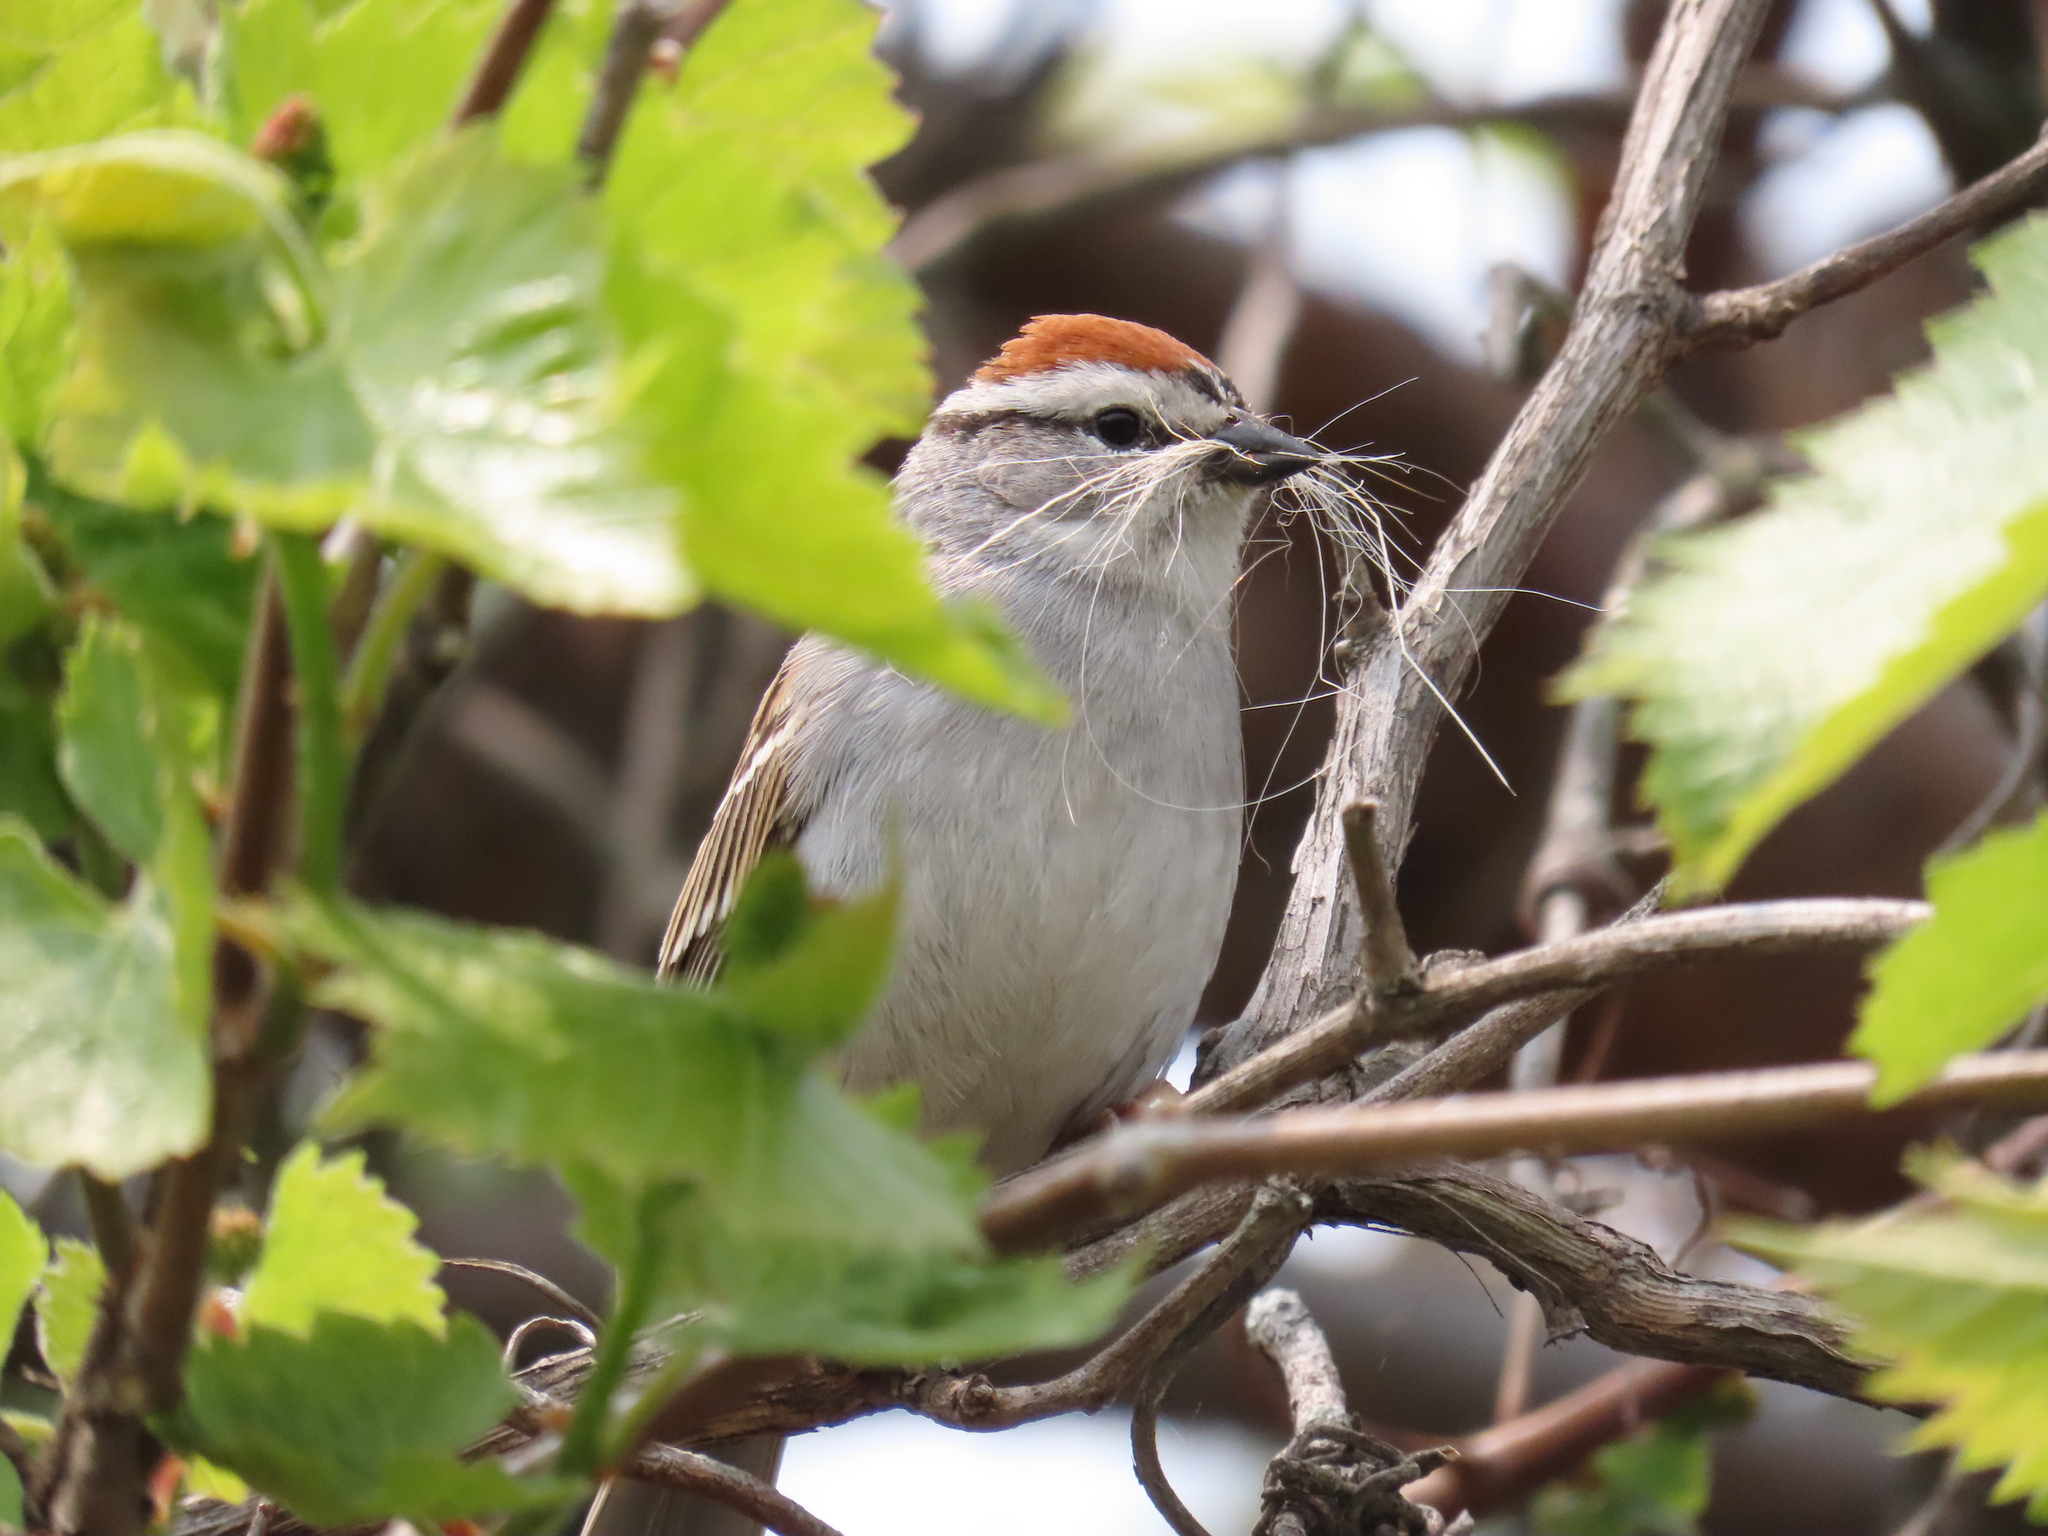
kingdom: Animalia
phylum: Chordata
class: Aves
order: Passeriformes
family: Passerellidae
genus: Spizella
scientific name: Spizella passerina
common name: Chipping sparrow
